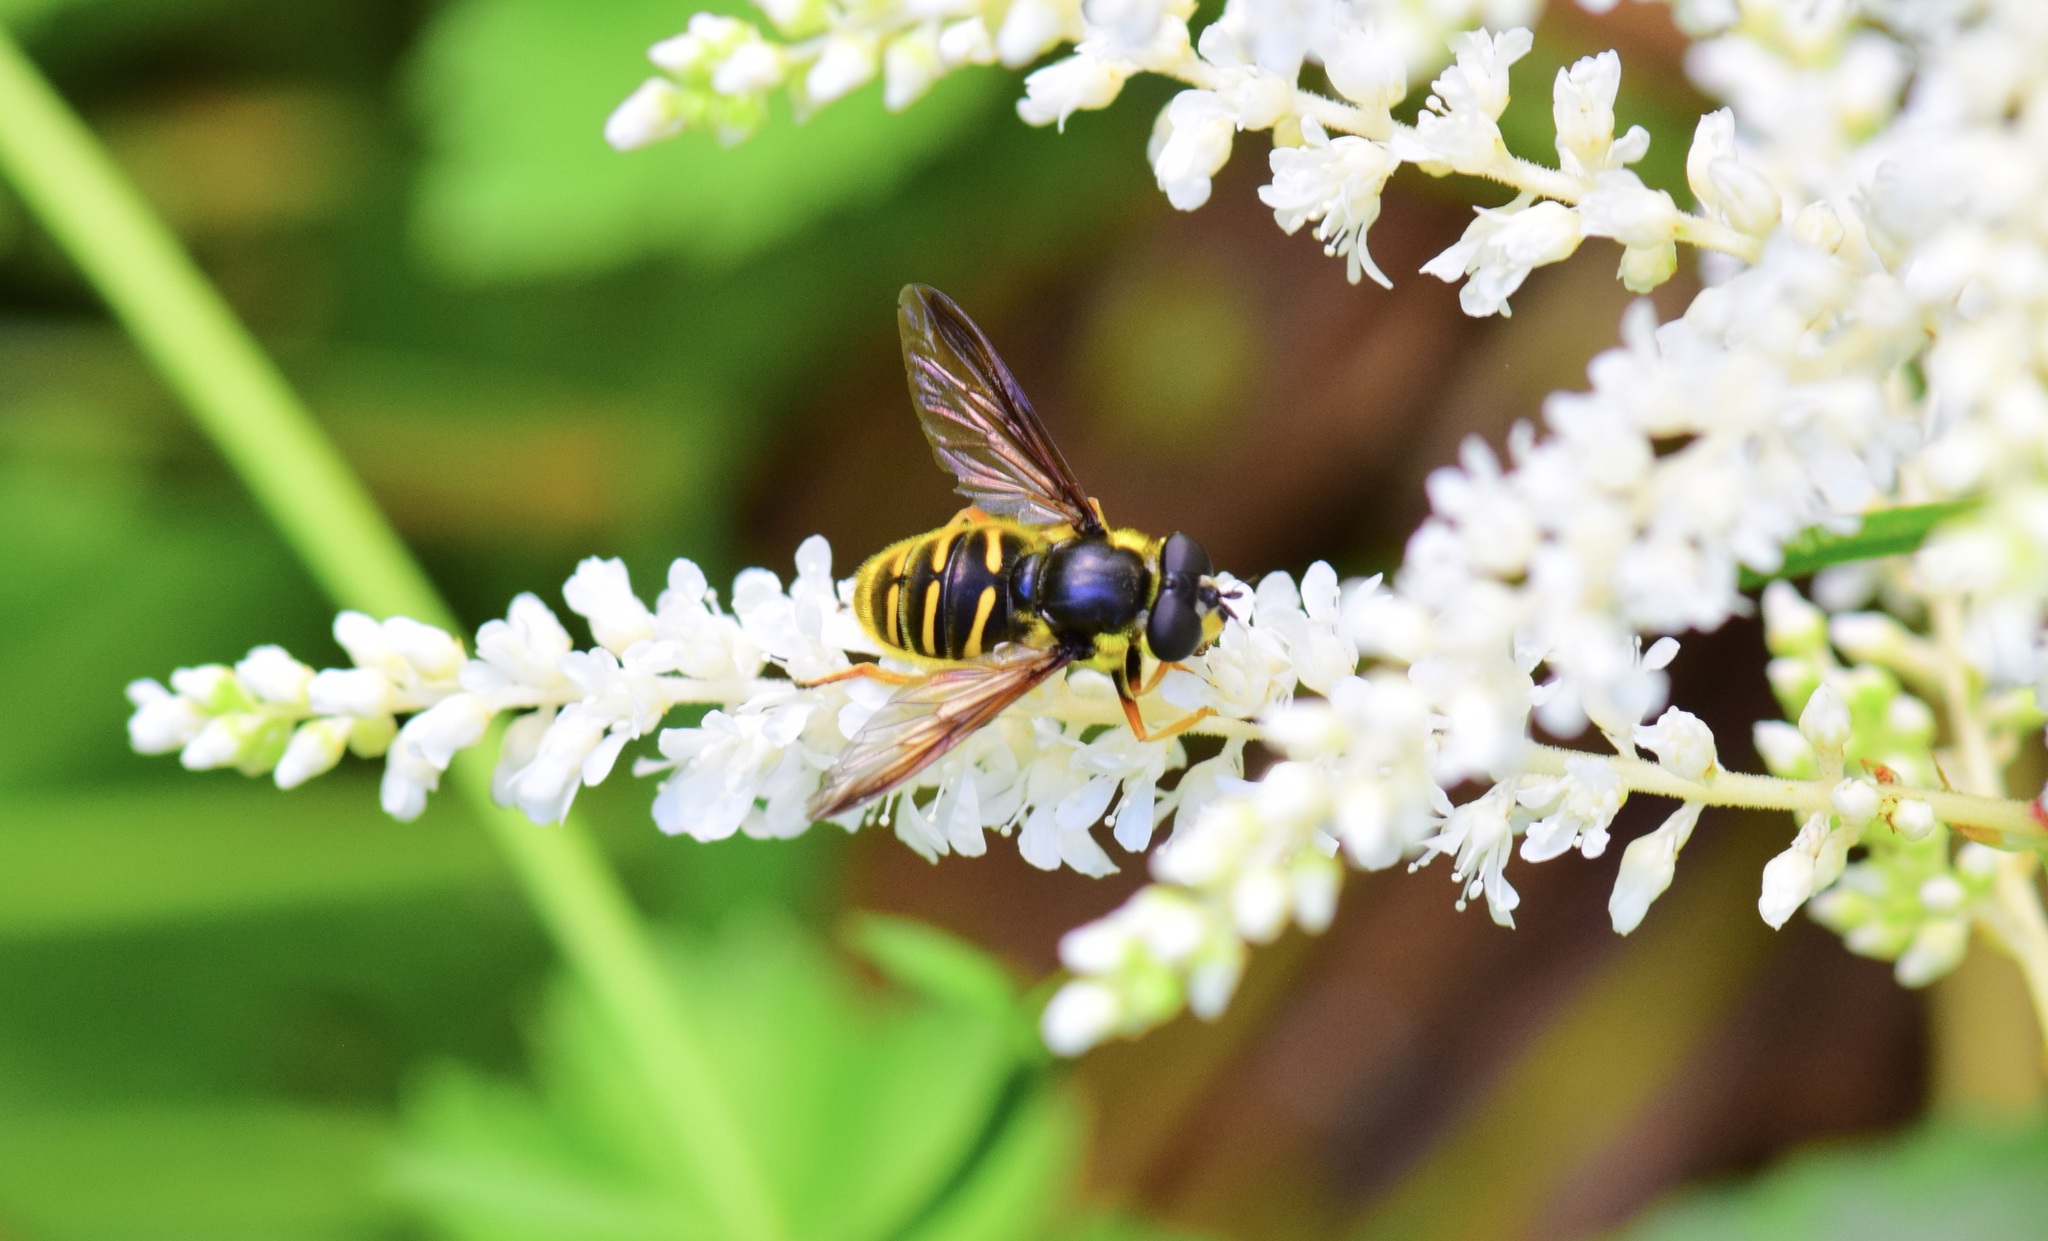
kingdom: Animalia
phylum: Arthropoda
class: Insecta
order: Diptera
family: Syrphidae
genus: Sericomyia
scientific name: Sericomyia chrysotoxoides
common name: Oblique-banded pond fly
